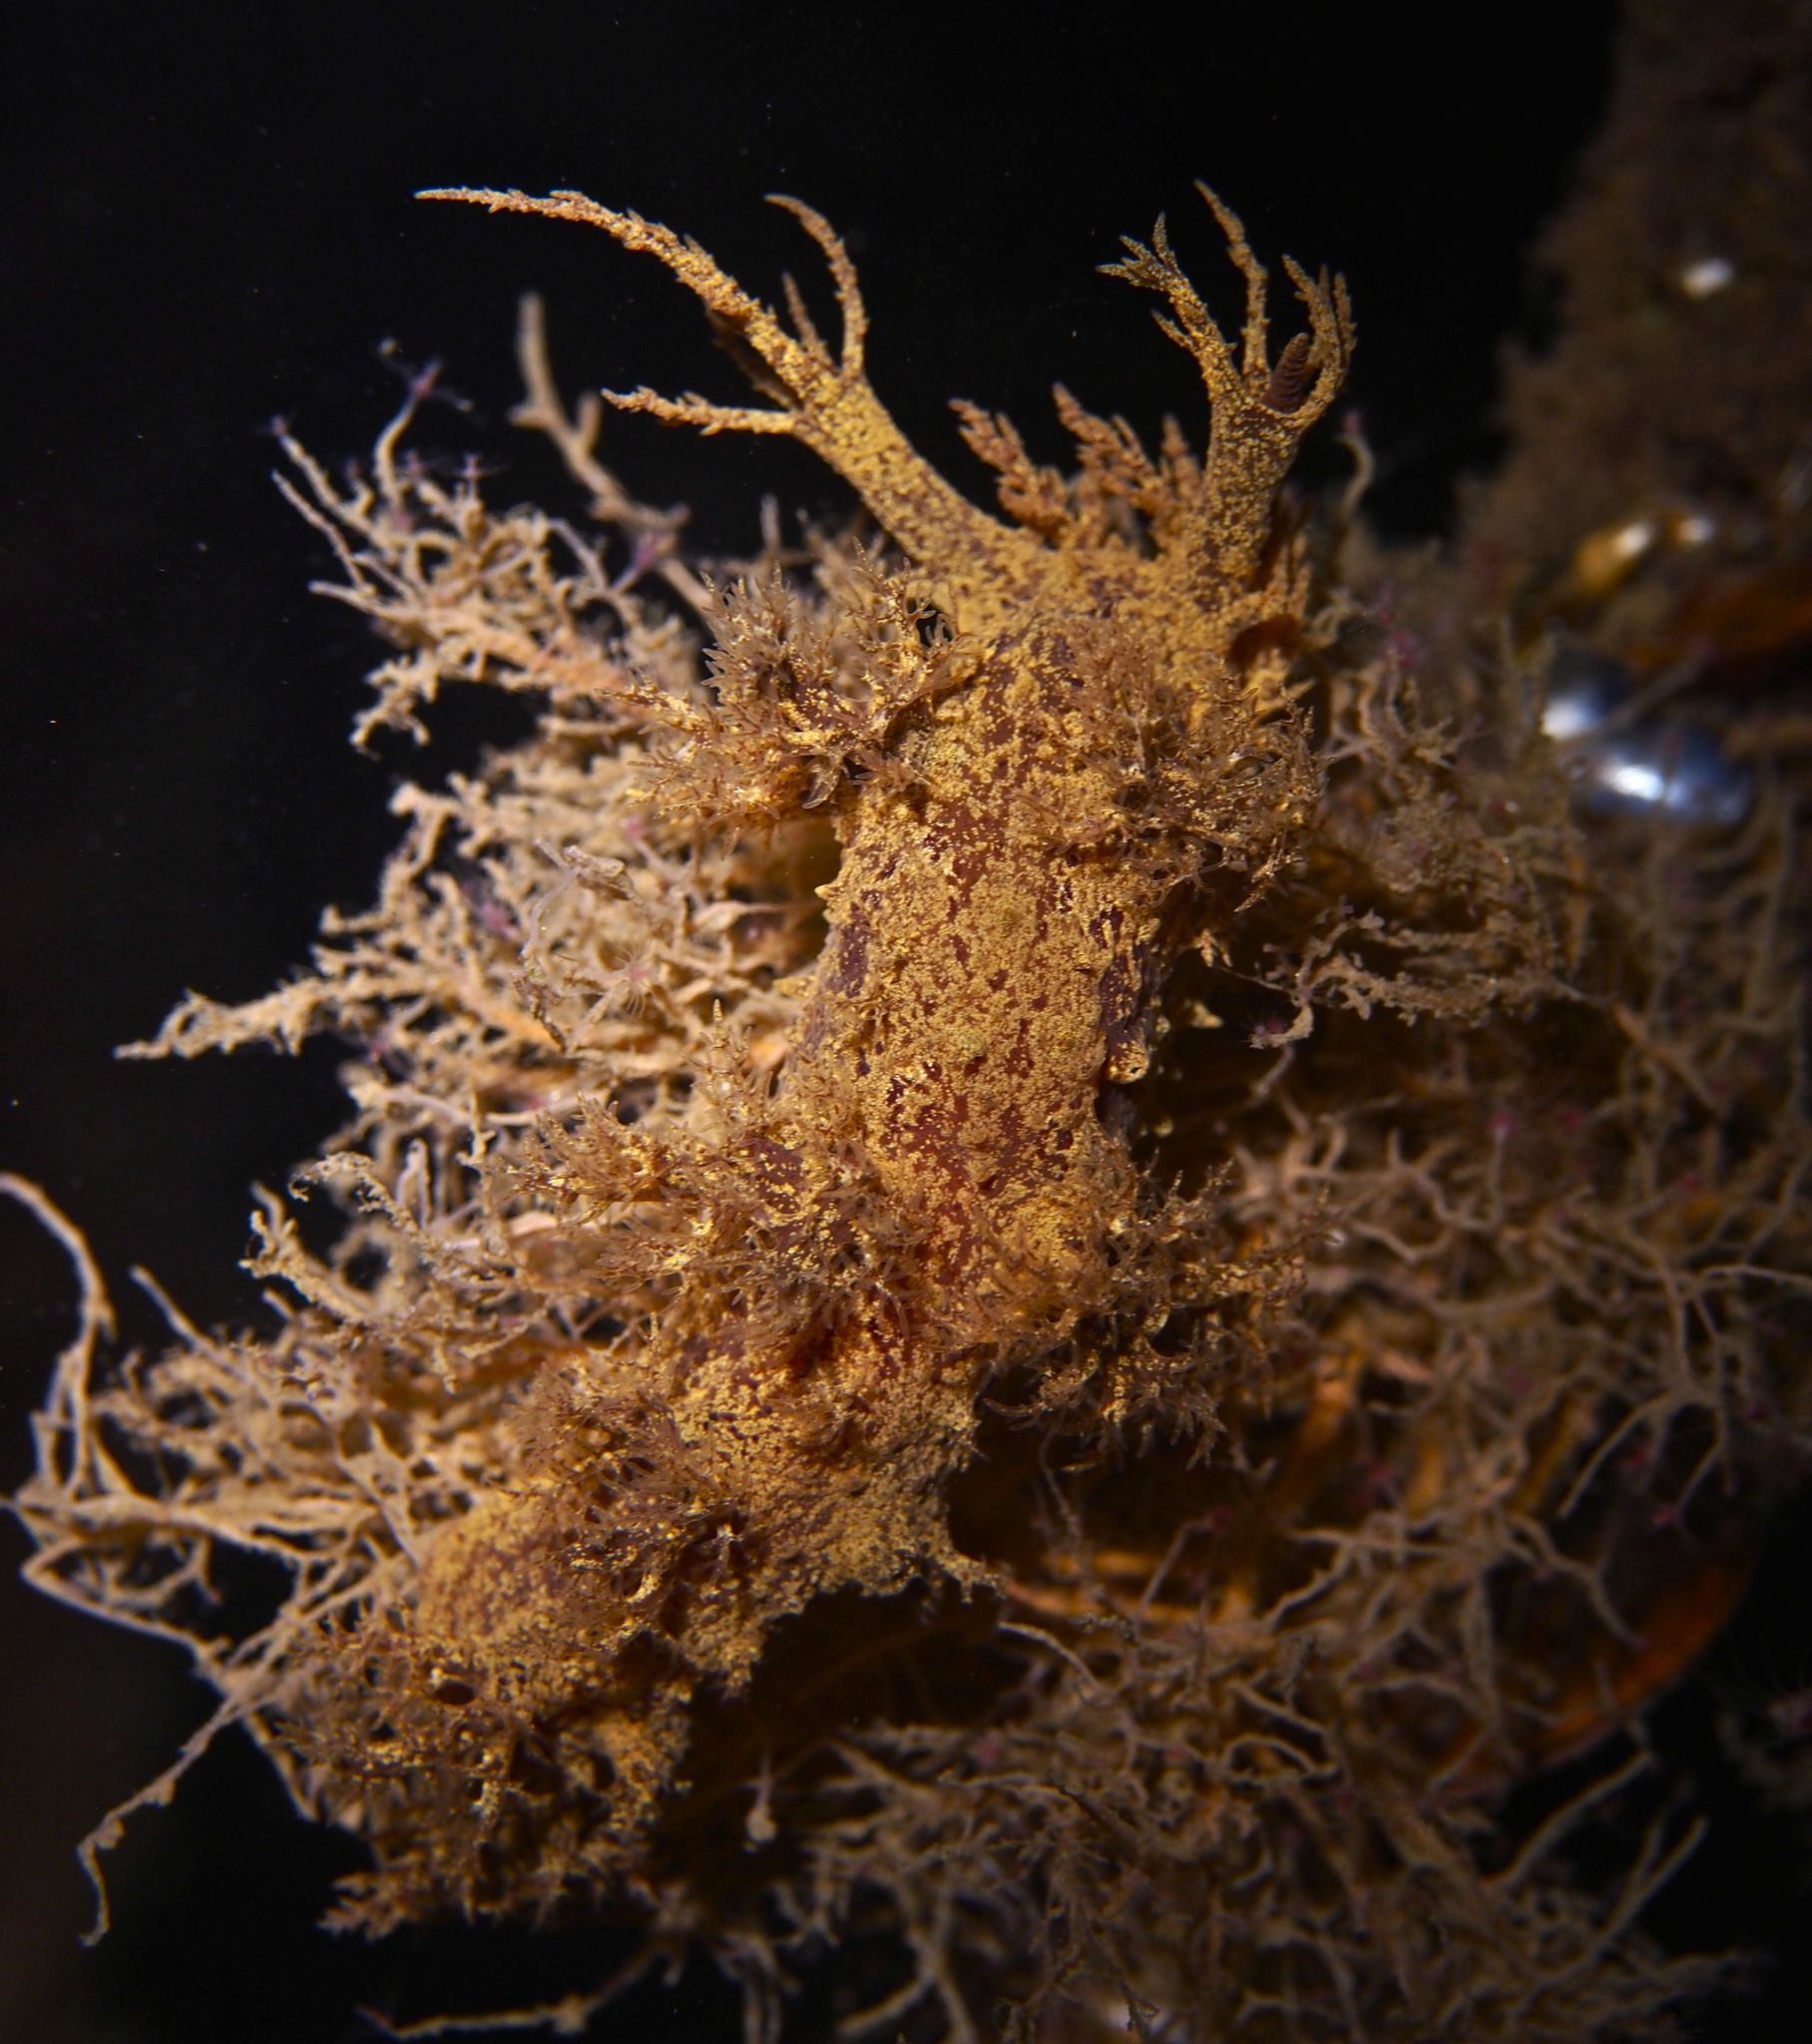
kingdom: Animalia
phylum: Mollusca
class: Gastropoda
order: Nudibranchia
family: Dendronotidae
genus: Dendronotus
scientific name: Dendronotus europaeus
